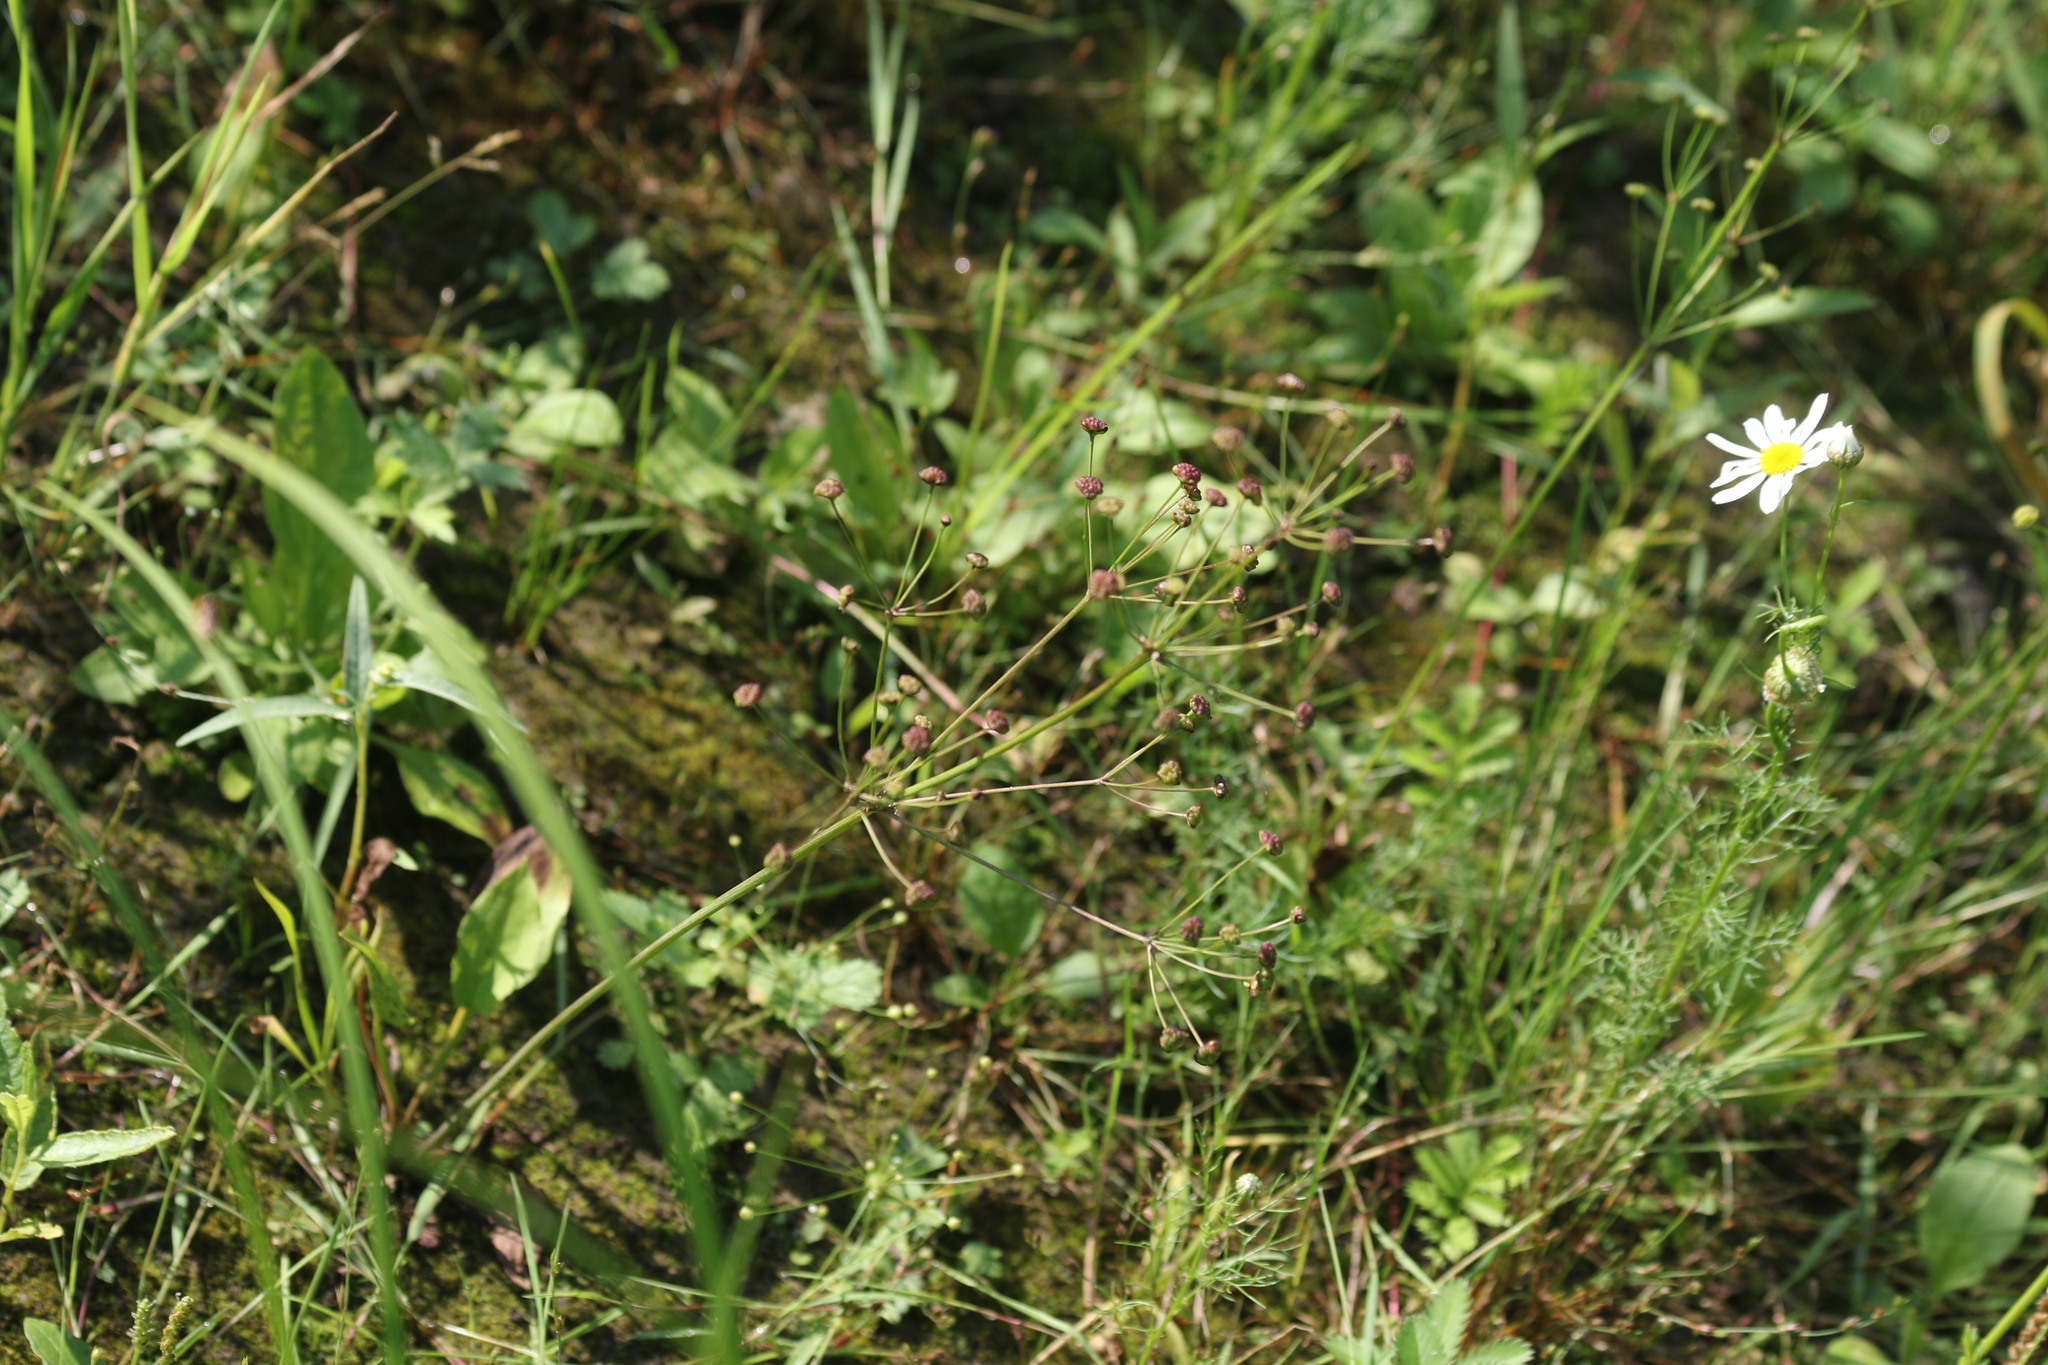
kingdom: Plantae
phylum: Tracheophyta
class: Liliopsida
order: Alismatales
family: Alismataceae
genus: Alisma
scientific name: Alisma plantago-aquatica
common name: Water-plantain
